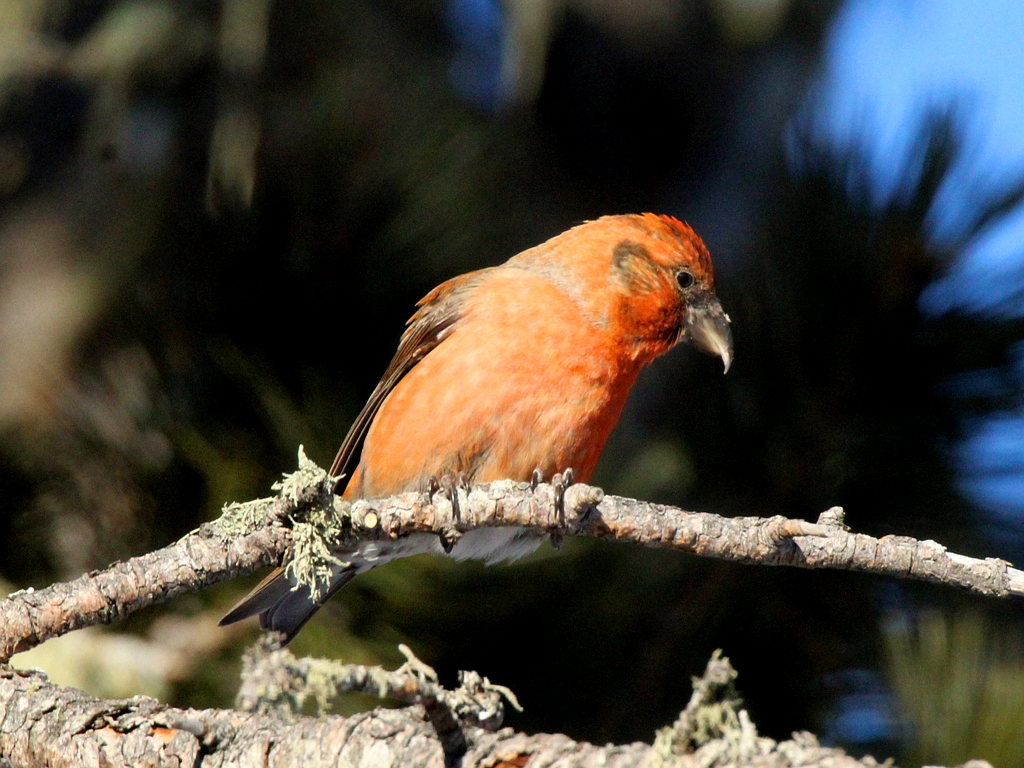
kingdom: Animalia
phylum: Chordata
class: Aves
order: Passeriformes
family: Fringillidae
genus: Loxia
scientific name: Loxia curvirostra
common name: Red crossbill
